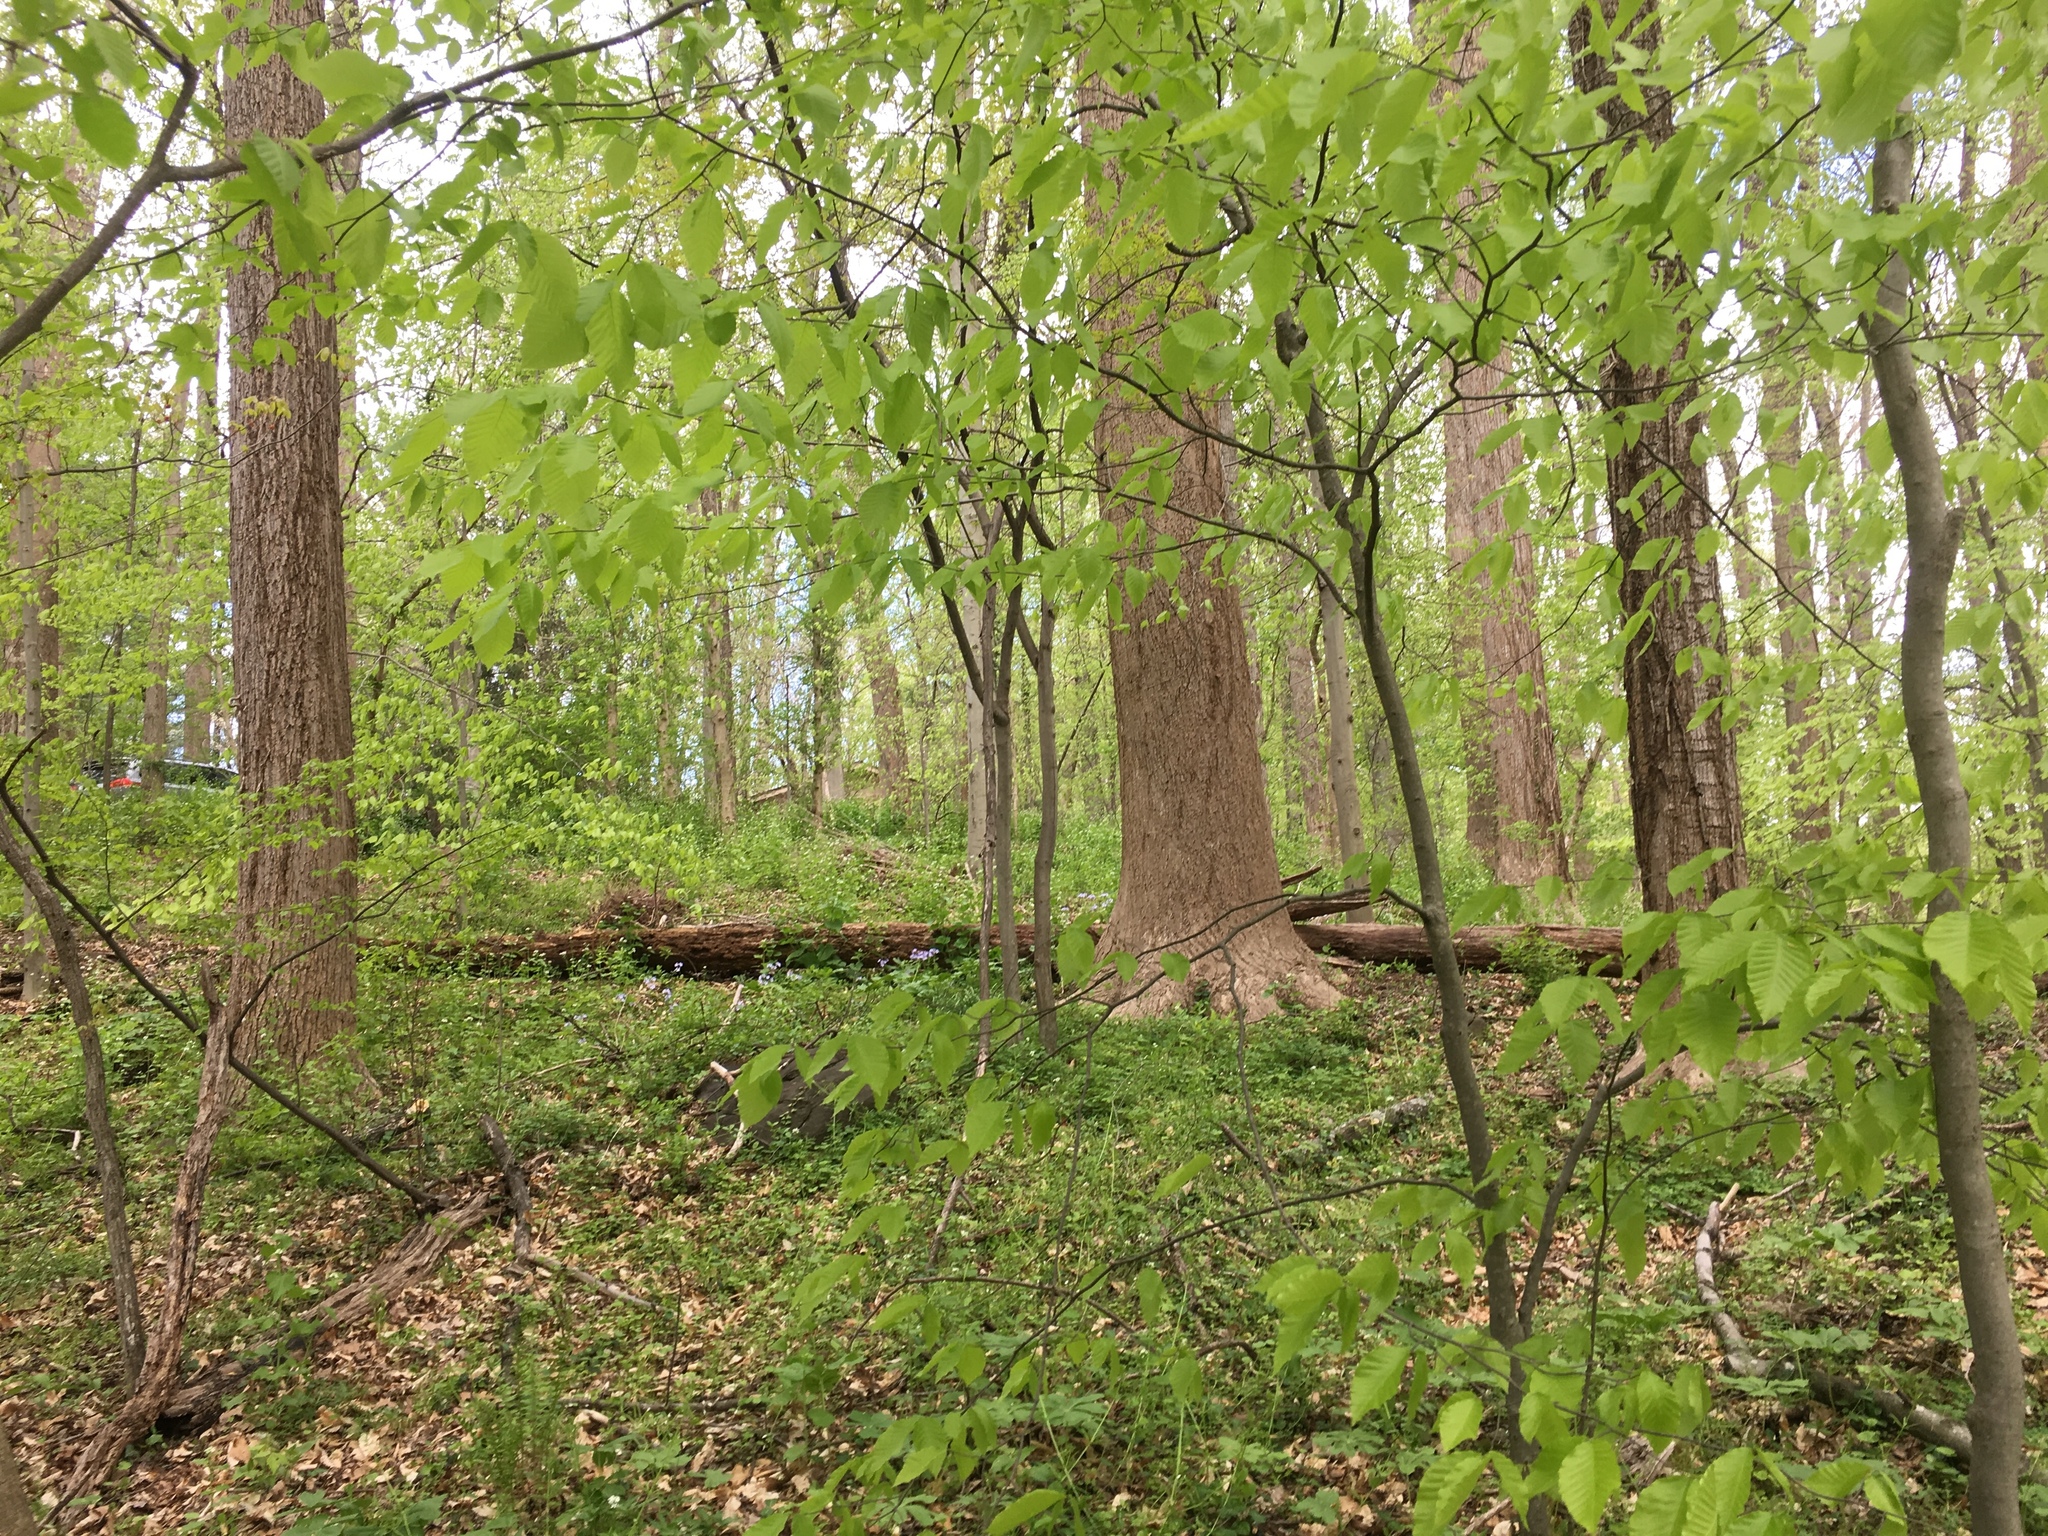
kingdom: Animalia
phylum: Chordata
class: Aves
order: Galliformes
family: Phasianidae
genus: Meleagris
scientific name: Meleagris gallopavo
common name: Wild turkey
